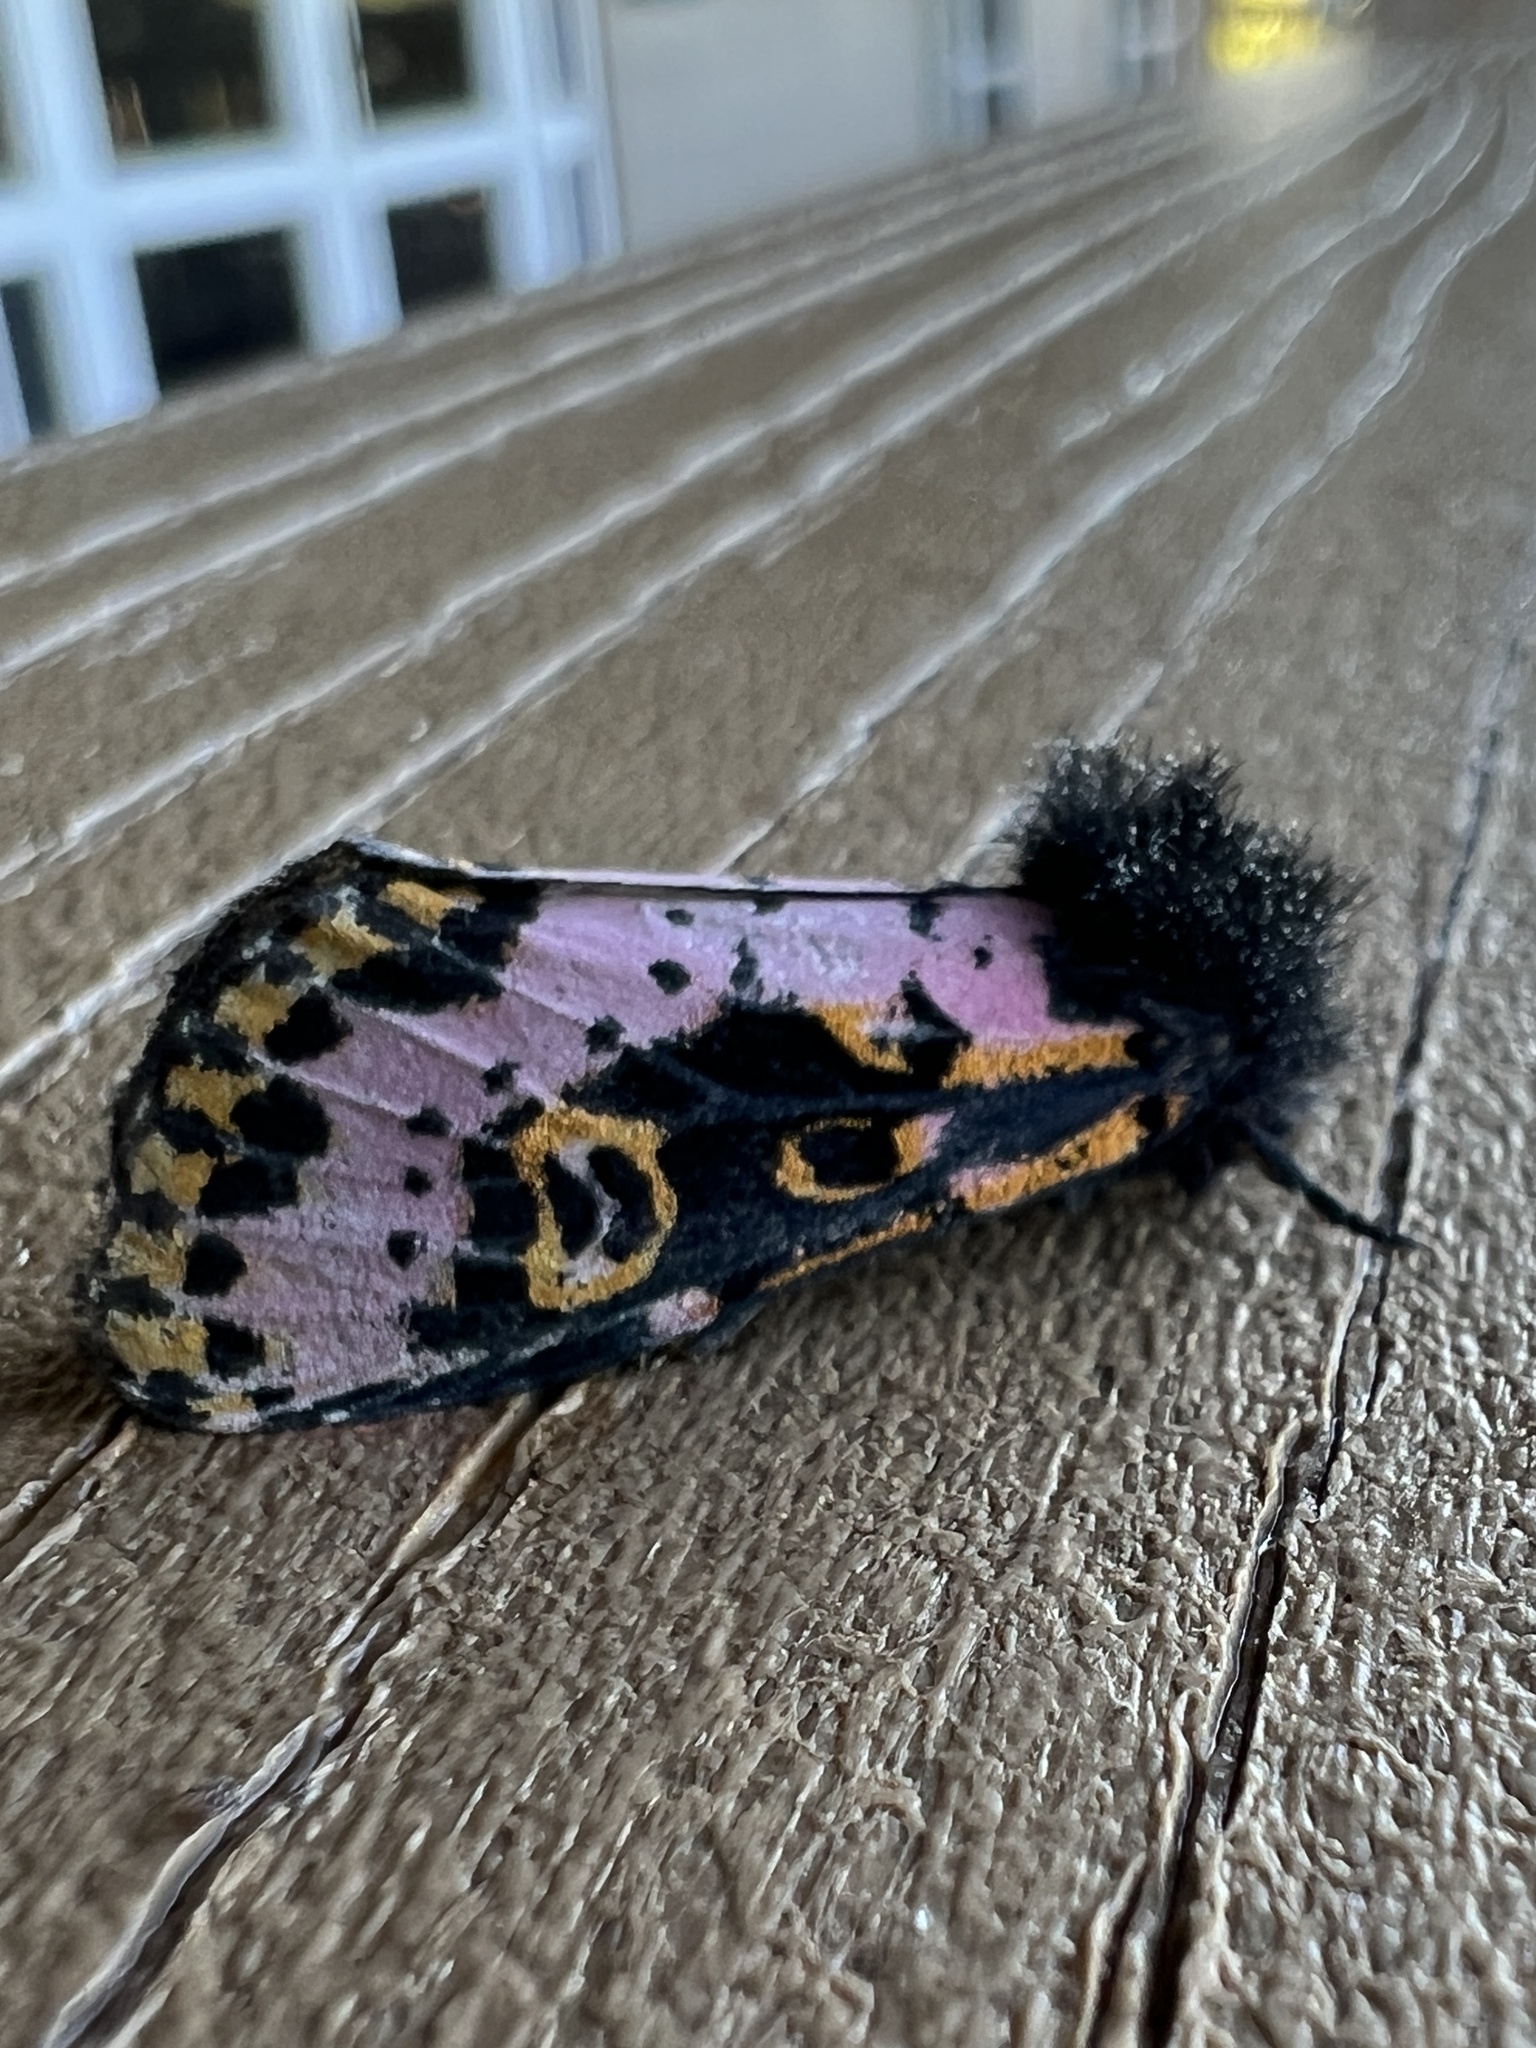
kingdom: Animalia
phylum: Arthropoda
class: Insecta
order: Lepidoptera
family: Noctuidae
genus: Xanthopastis
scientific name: Xanthopastis regnatrix
